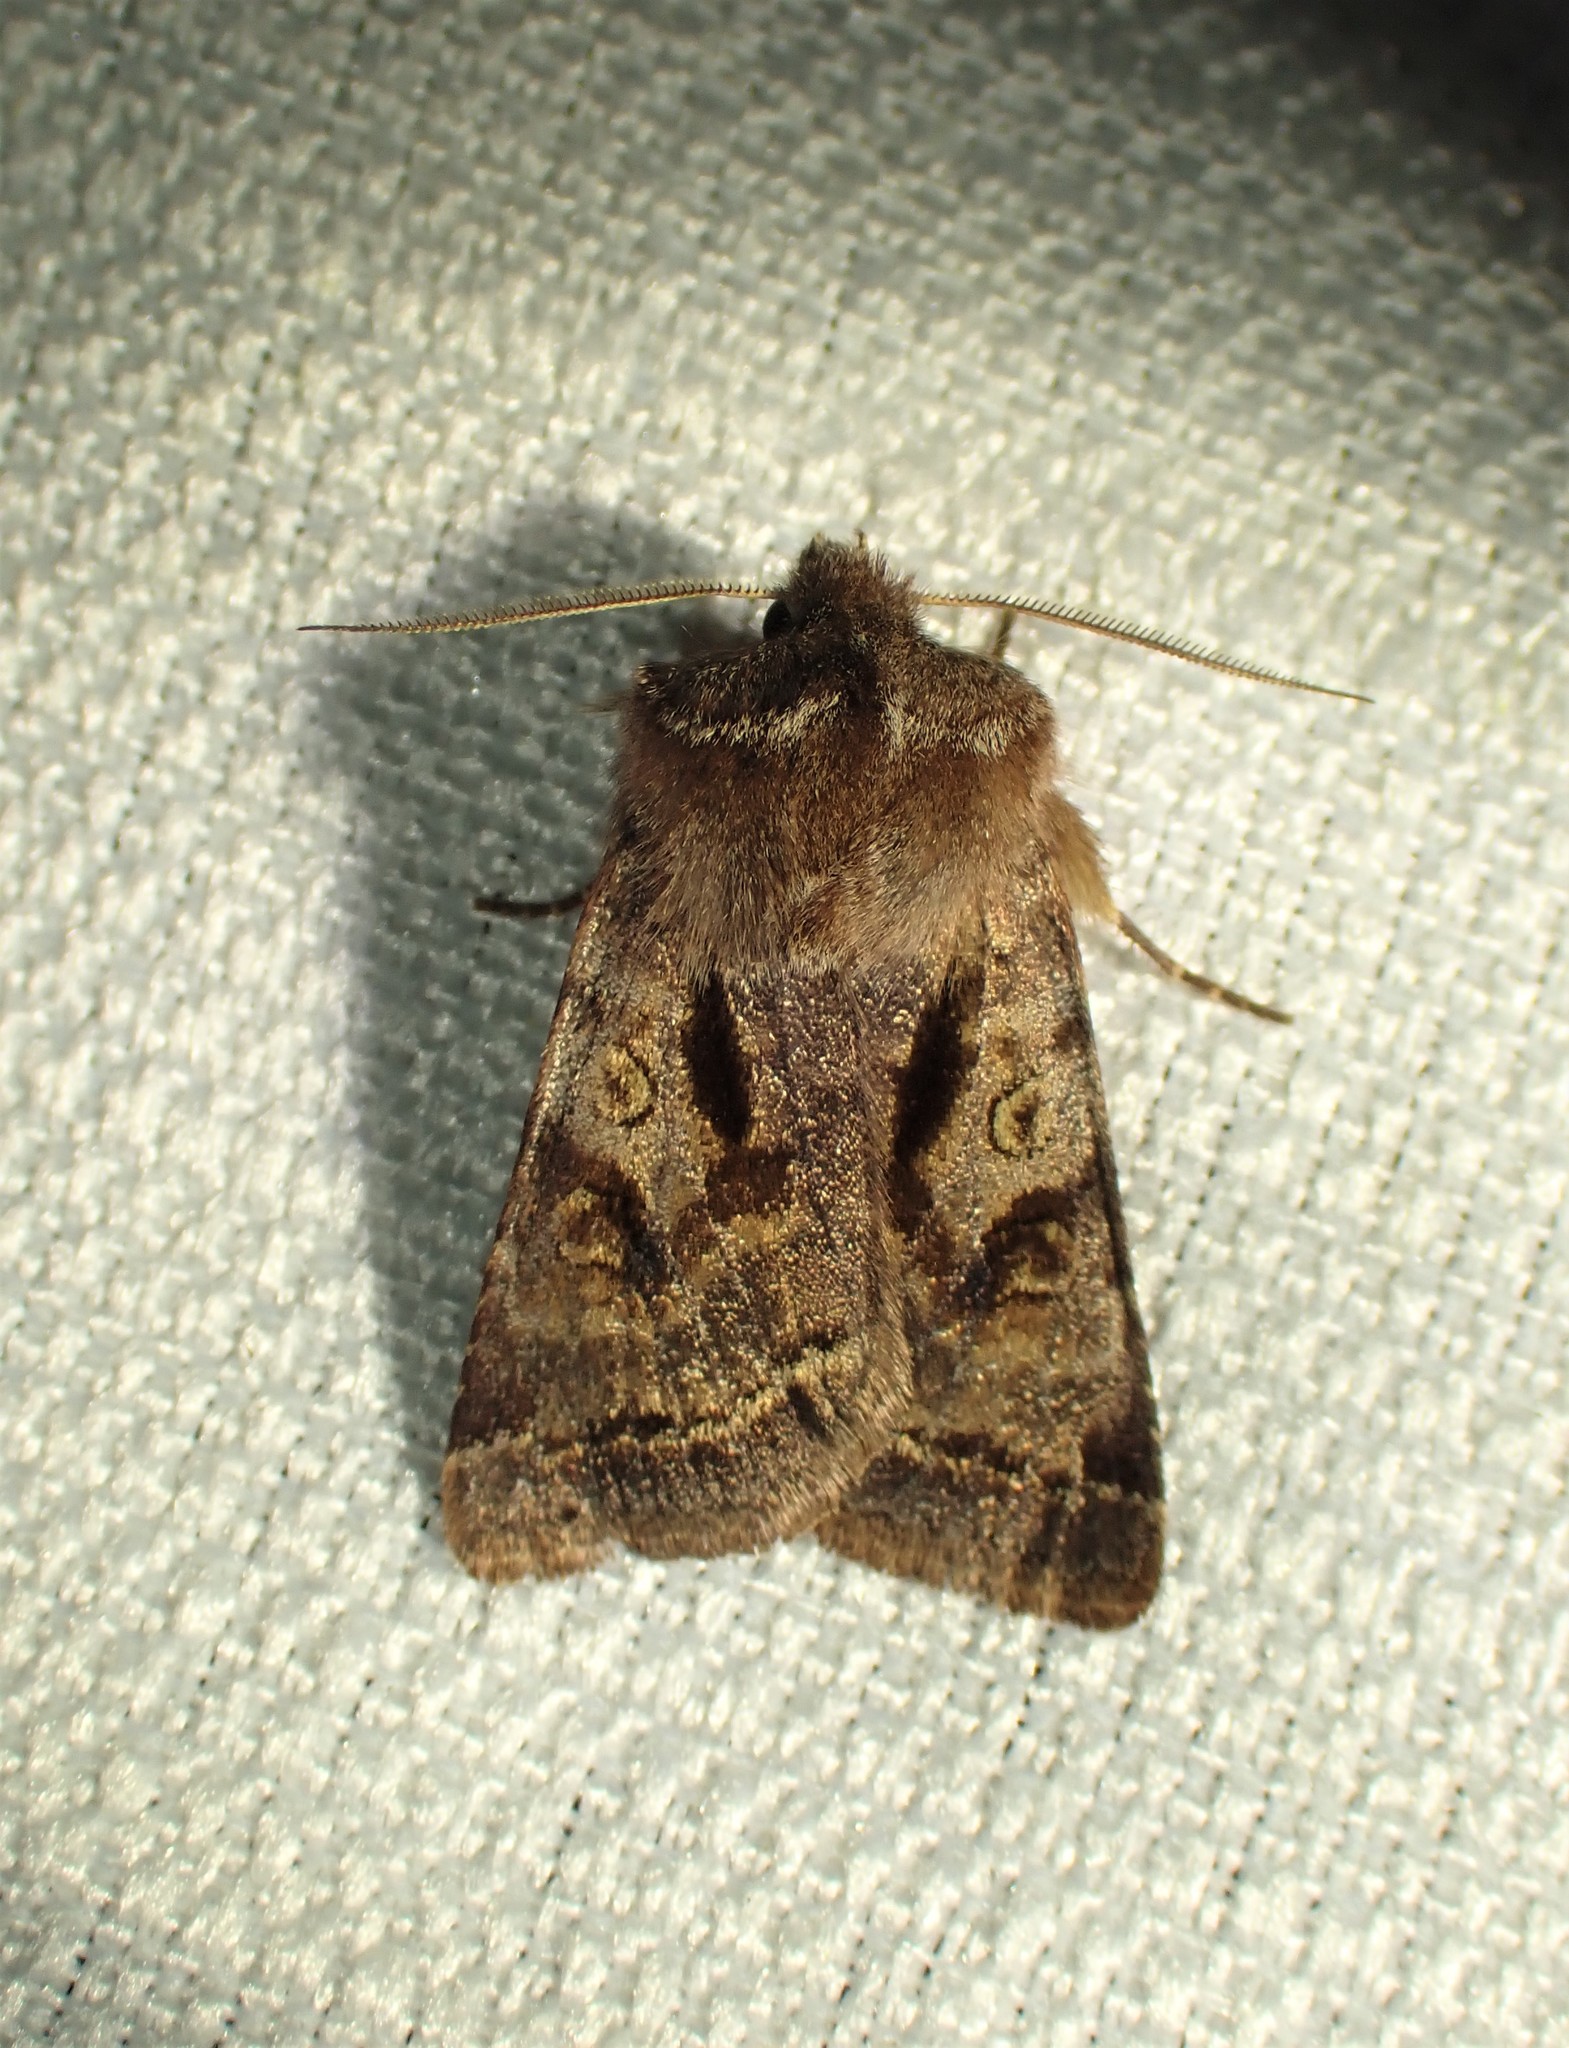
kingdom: Animalia
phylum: Arthropoda
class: Insecta
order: Lepidoptera
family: Noctuidae
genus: Cerastis
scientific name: Cerastis salicarum
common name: Willow dart
